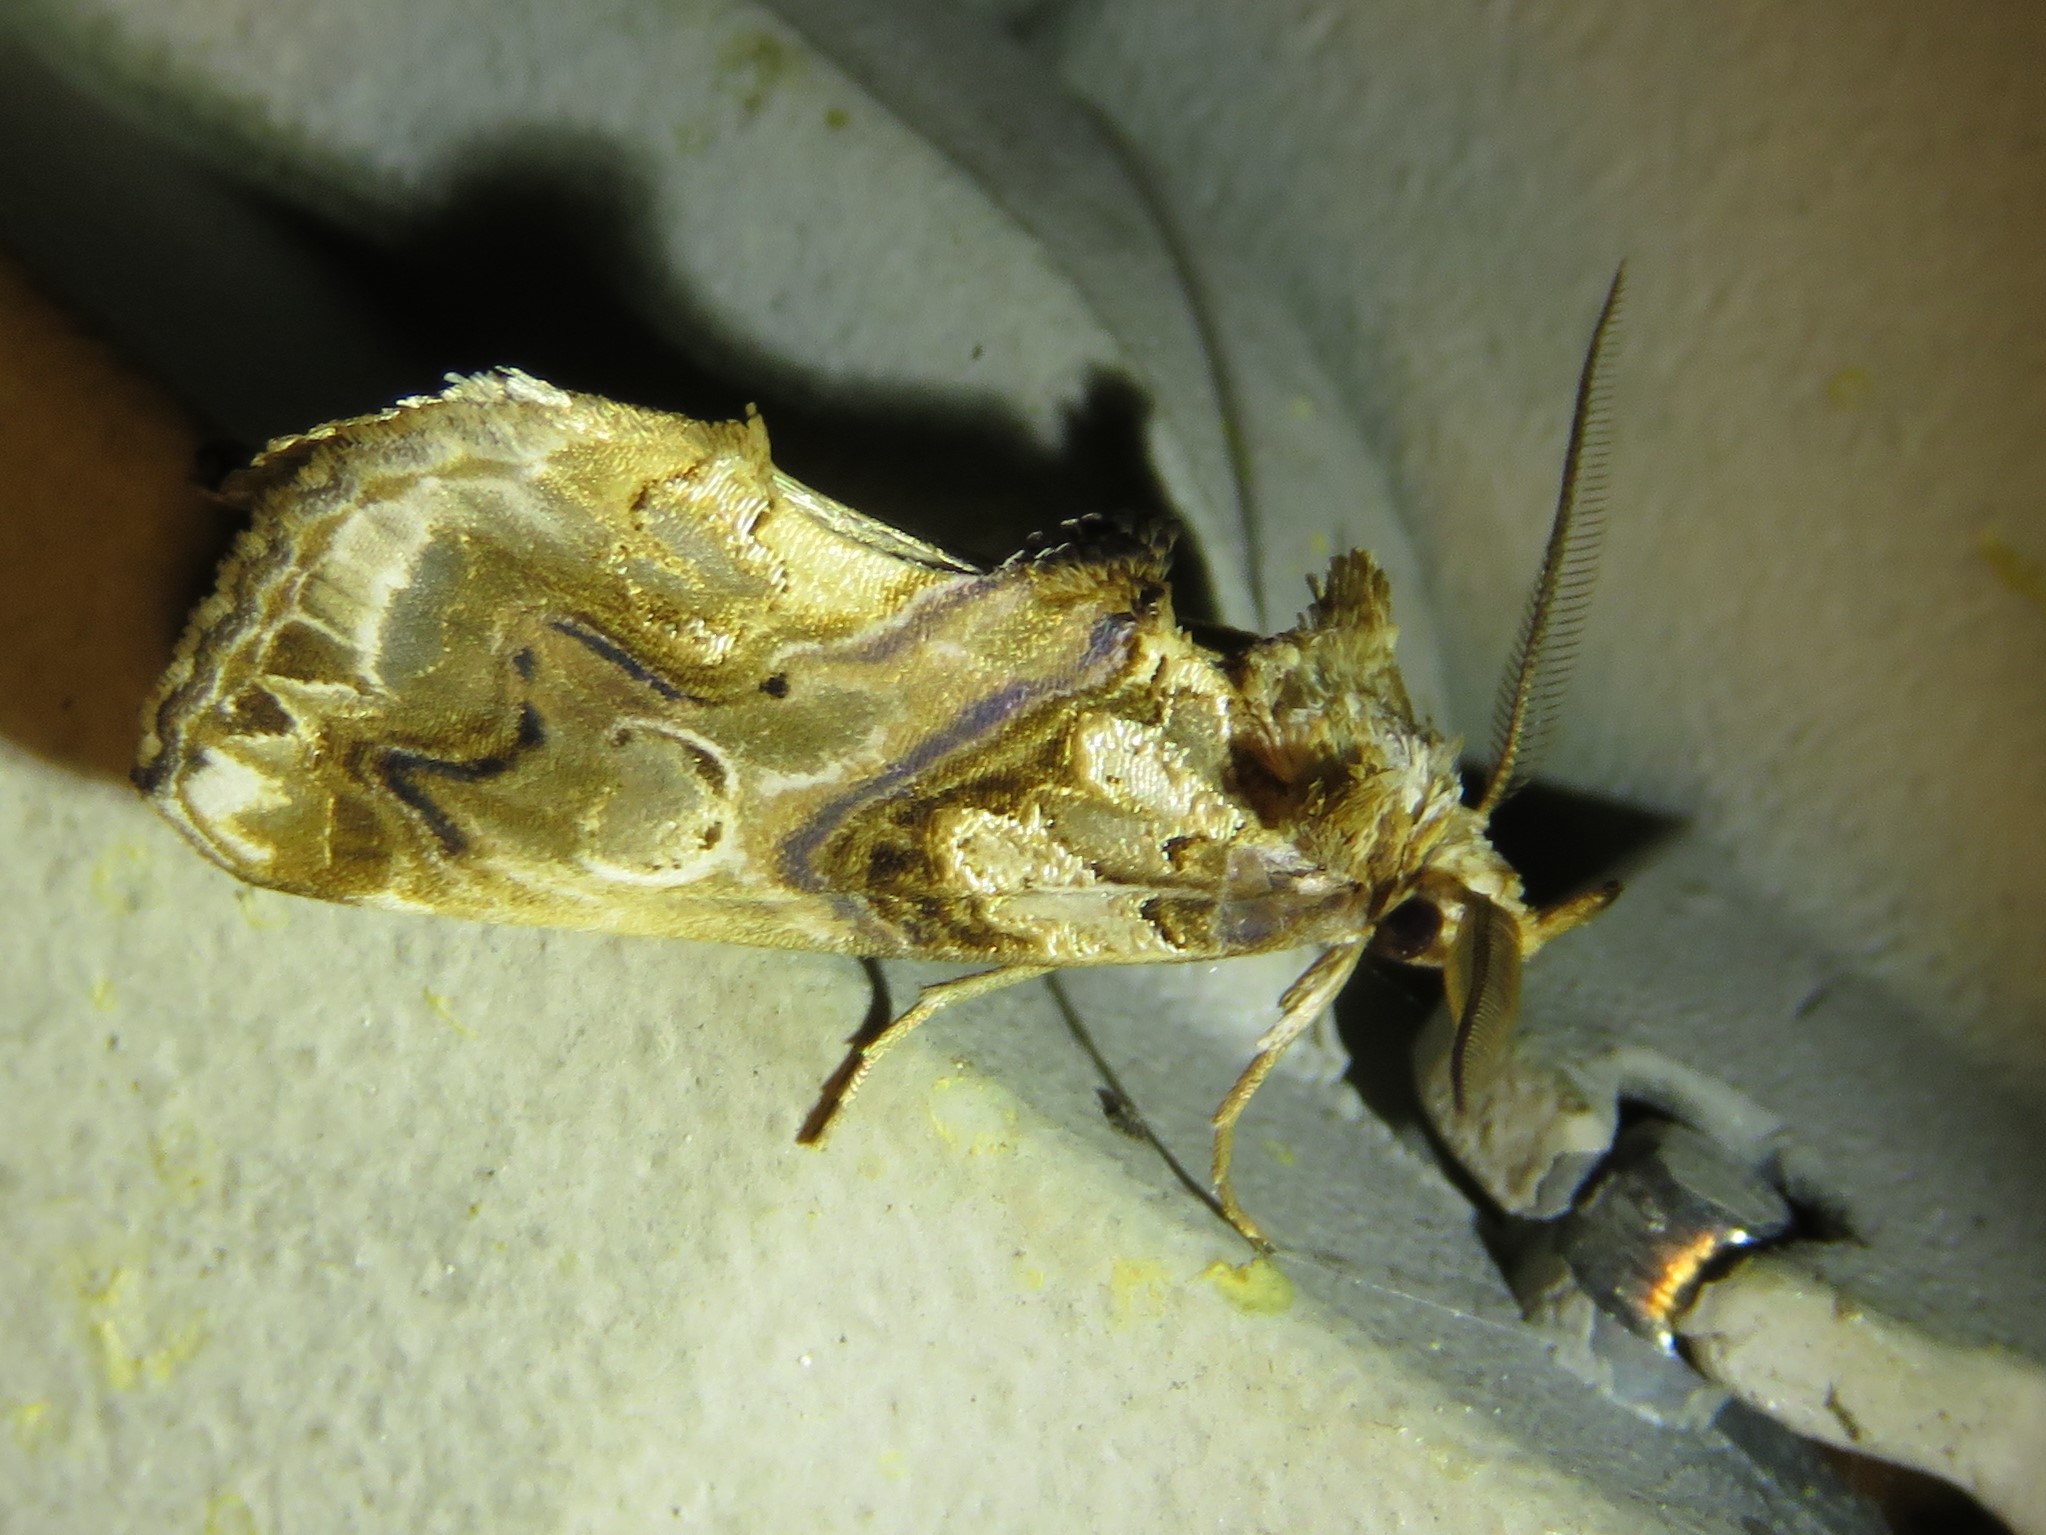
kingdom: Animalia
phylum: Arthropoda
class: Insecta
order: Lepidoptera
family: Erebidae
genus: Plusiodonta
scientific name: Plusiodonta compressipalpis
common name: Moonseed moth
